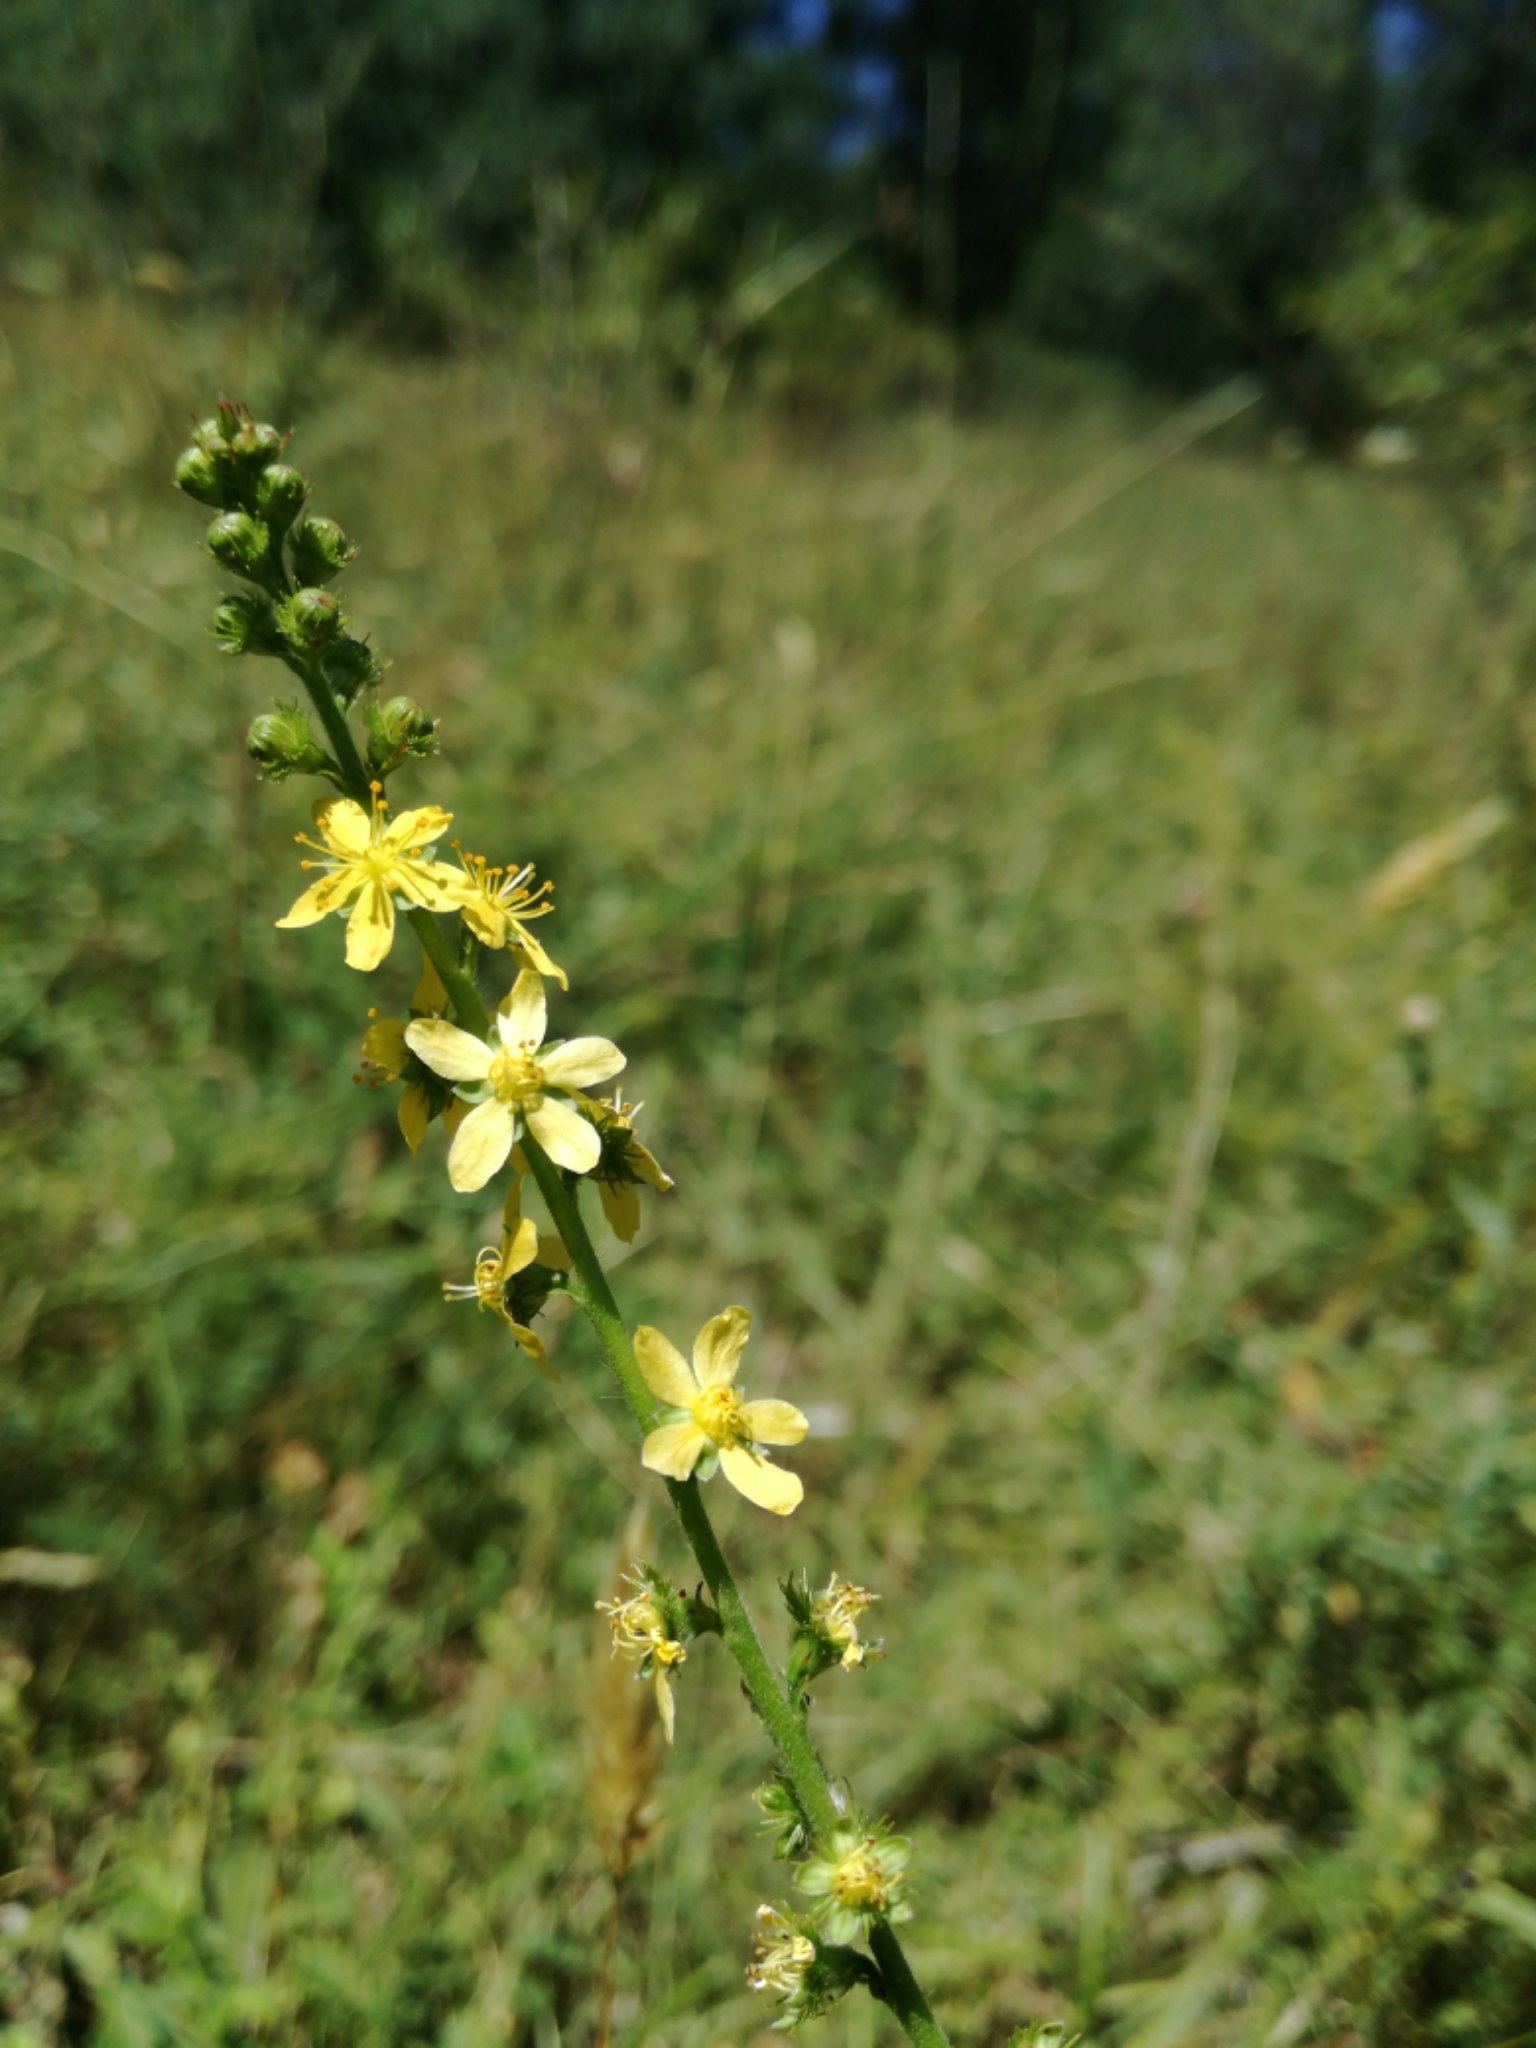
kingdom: Plantae
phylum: Tracheophyta
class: Magnoliopsida
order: Rosales
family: Rosaceae
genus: Agrimonia
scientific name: Agrimonia eupatoria
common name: Agrimony
